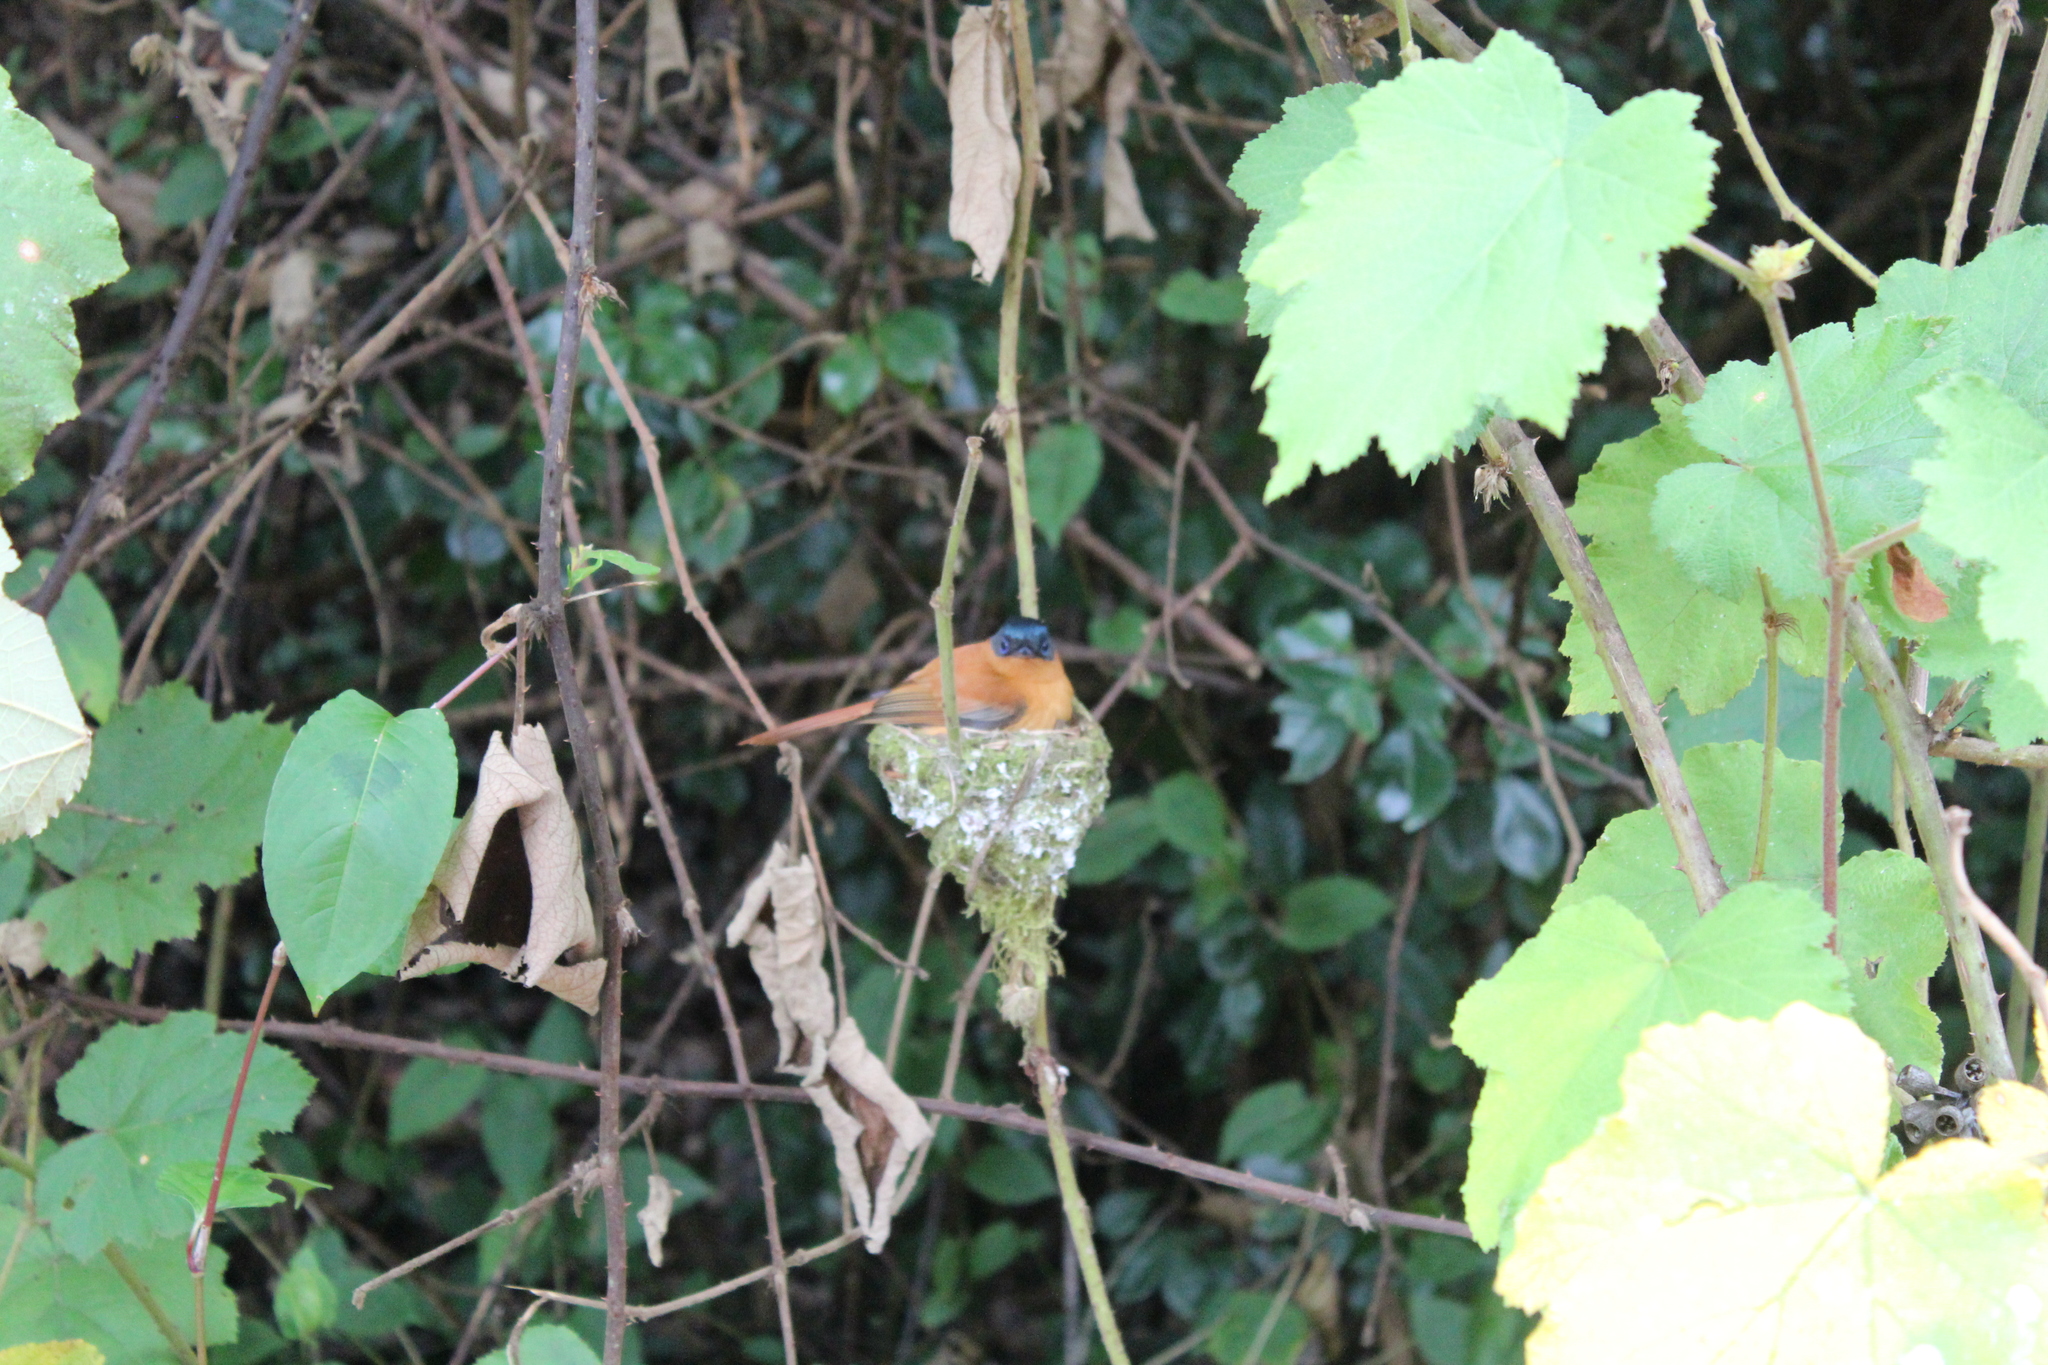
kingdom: Animalia
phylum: Chordata
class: Aves
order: Passeriformes
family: Monarchidae
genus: Terpsiphone
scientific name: Terpsiphone mutata
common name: Malagasy paradise flycatcher
